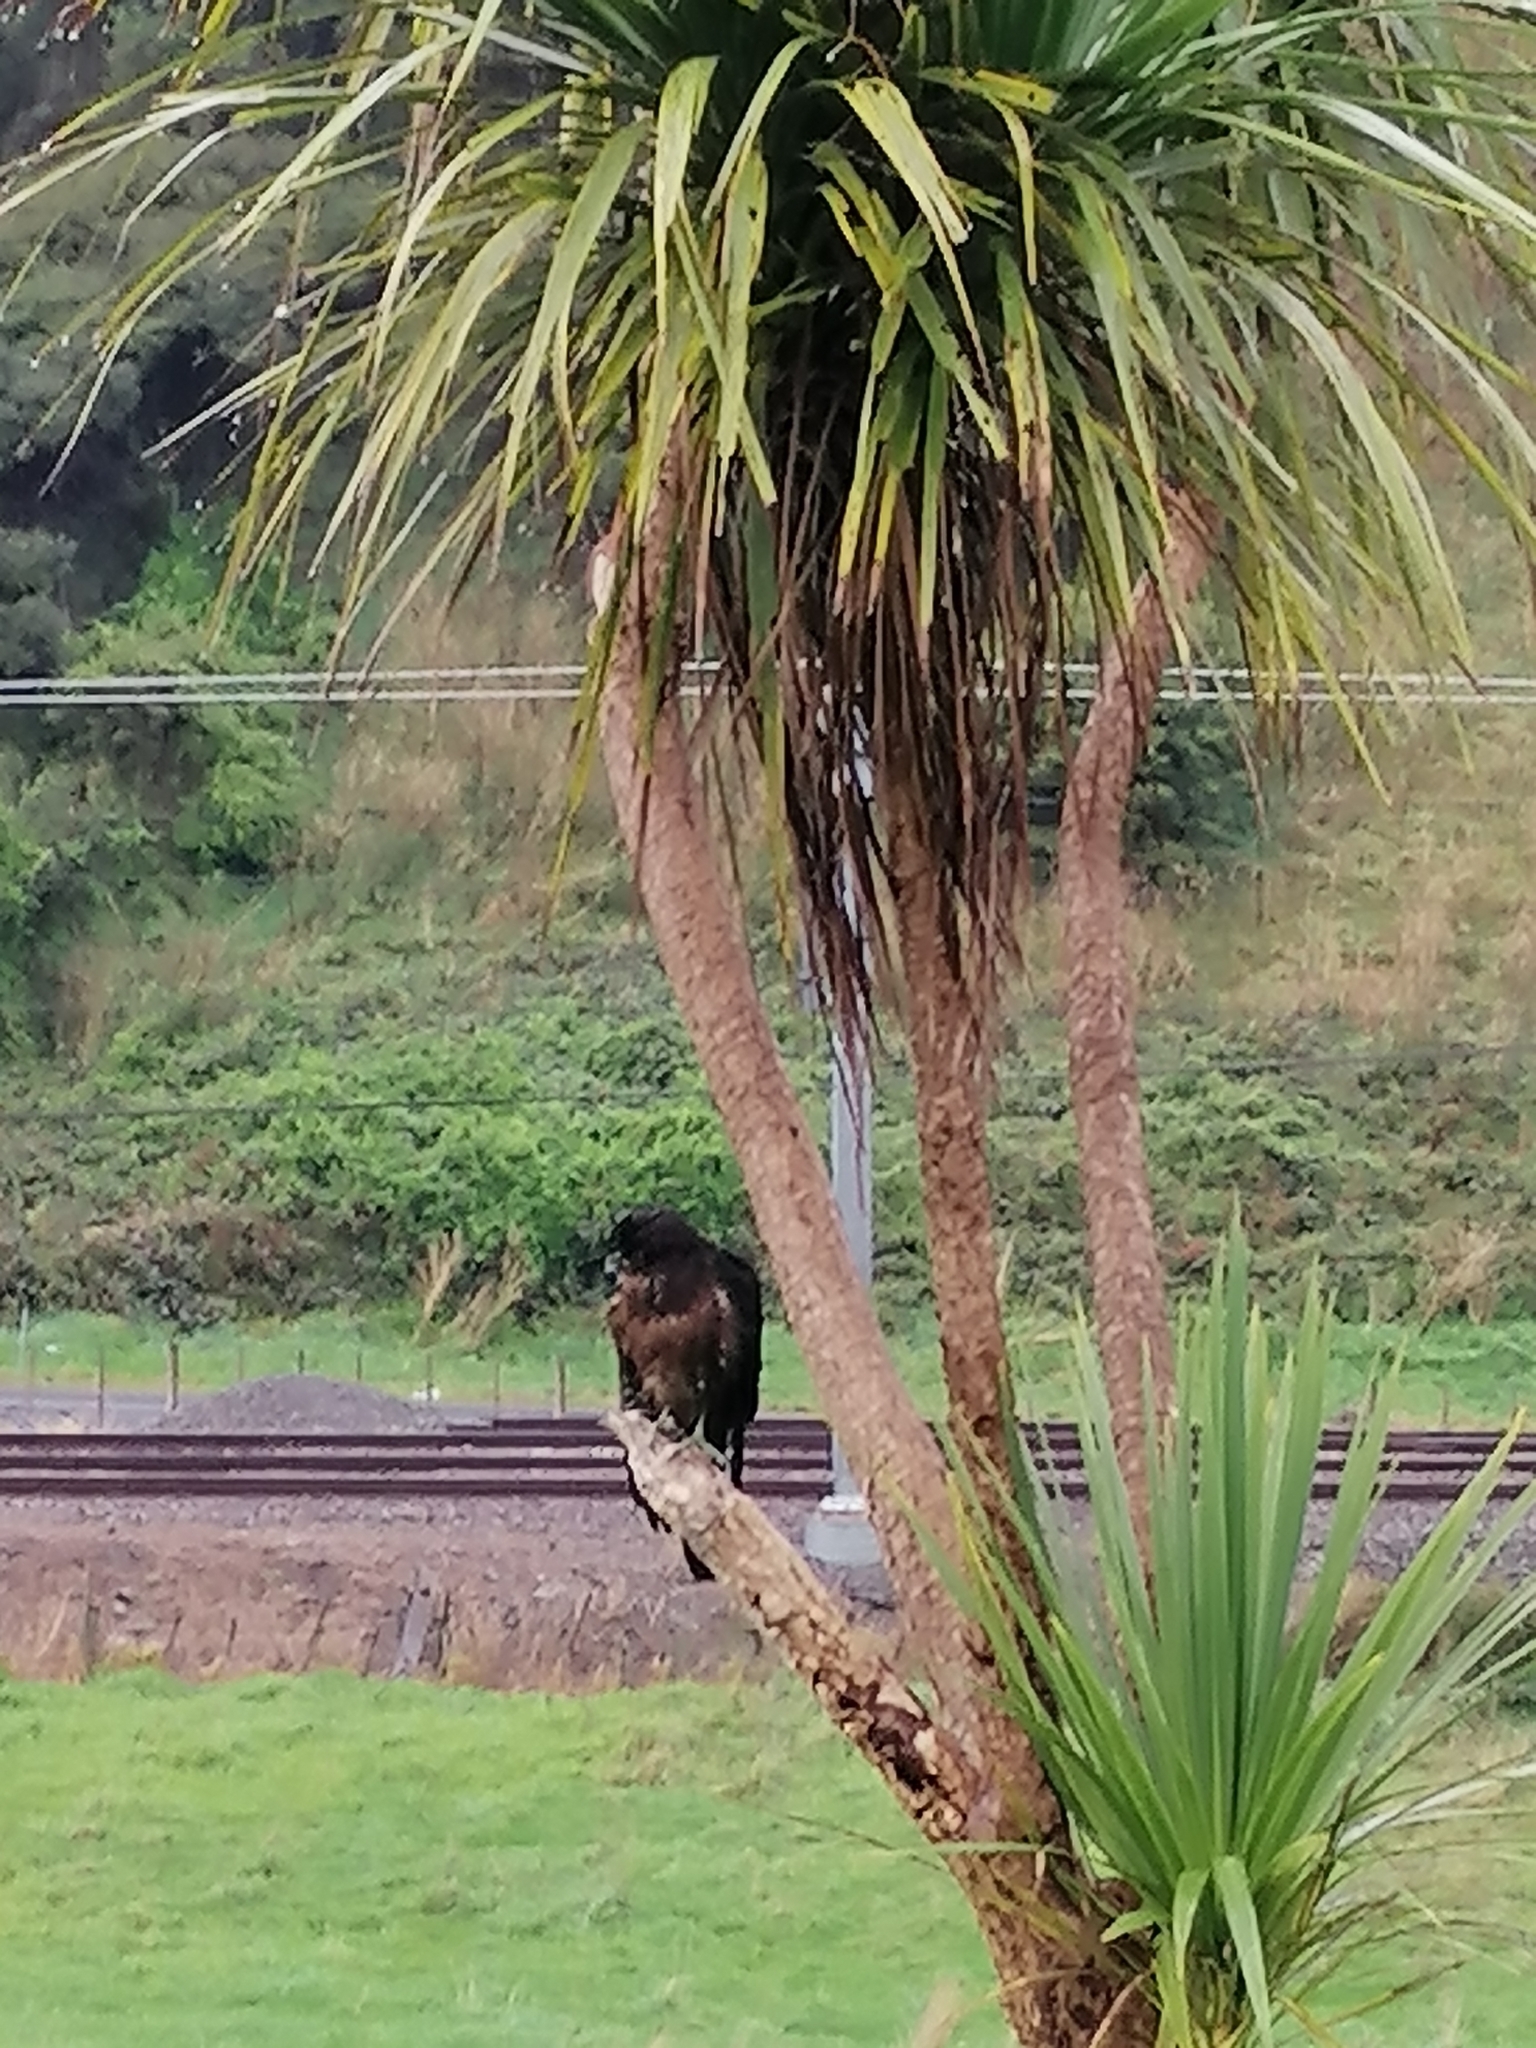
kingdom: Animalia
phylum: Chordata
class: Aves
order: Falconiformes
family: Falconidae
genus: Falco
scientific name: Falco novaeseelandiae
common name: New zealand falcon
